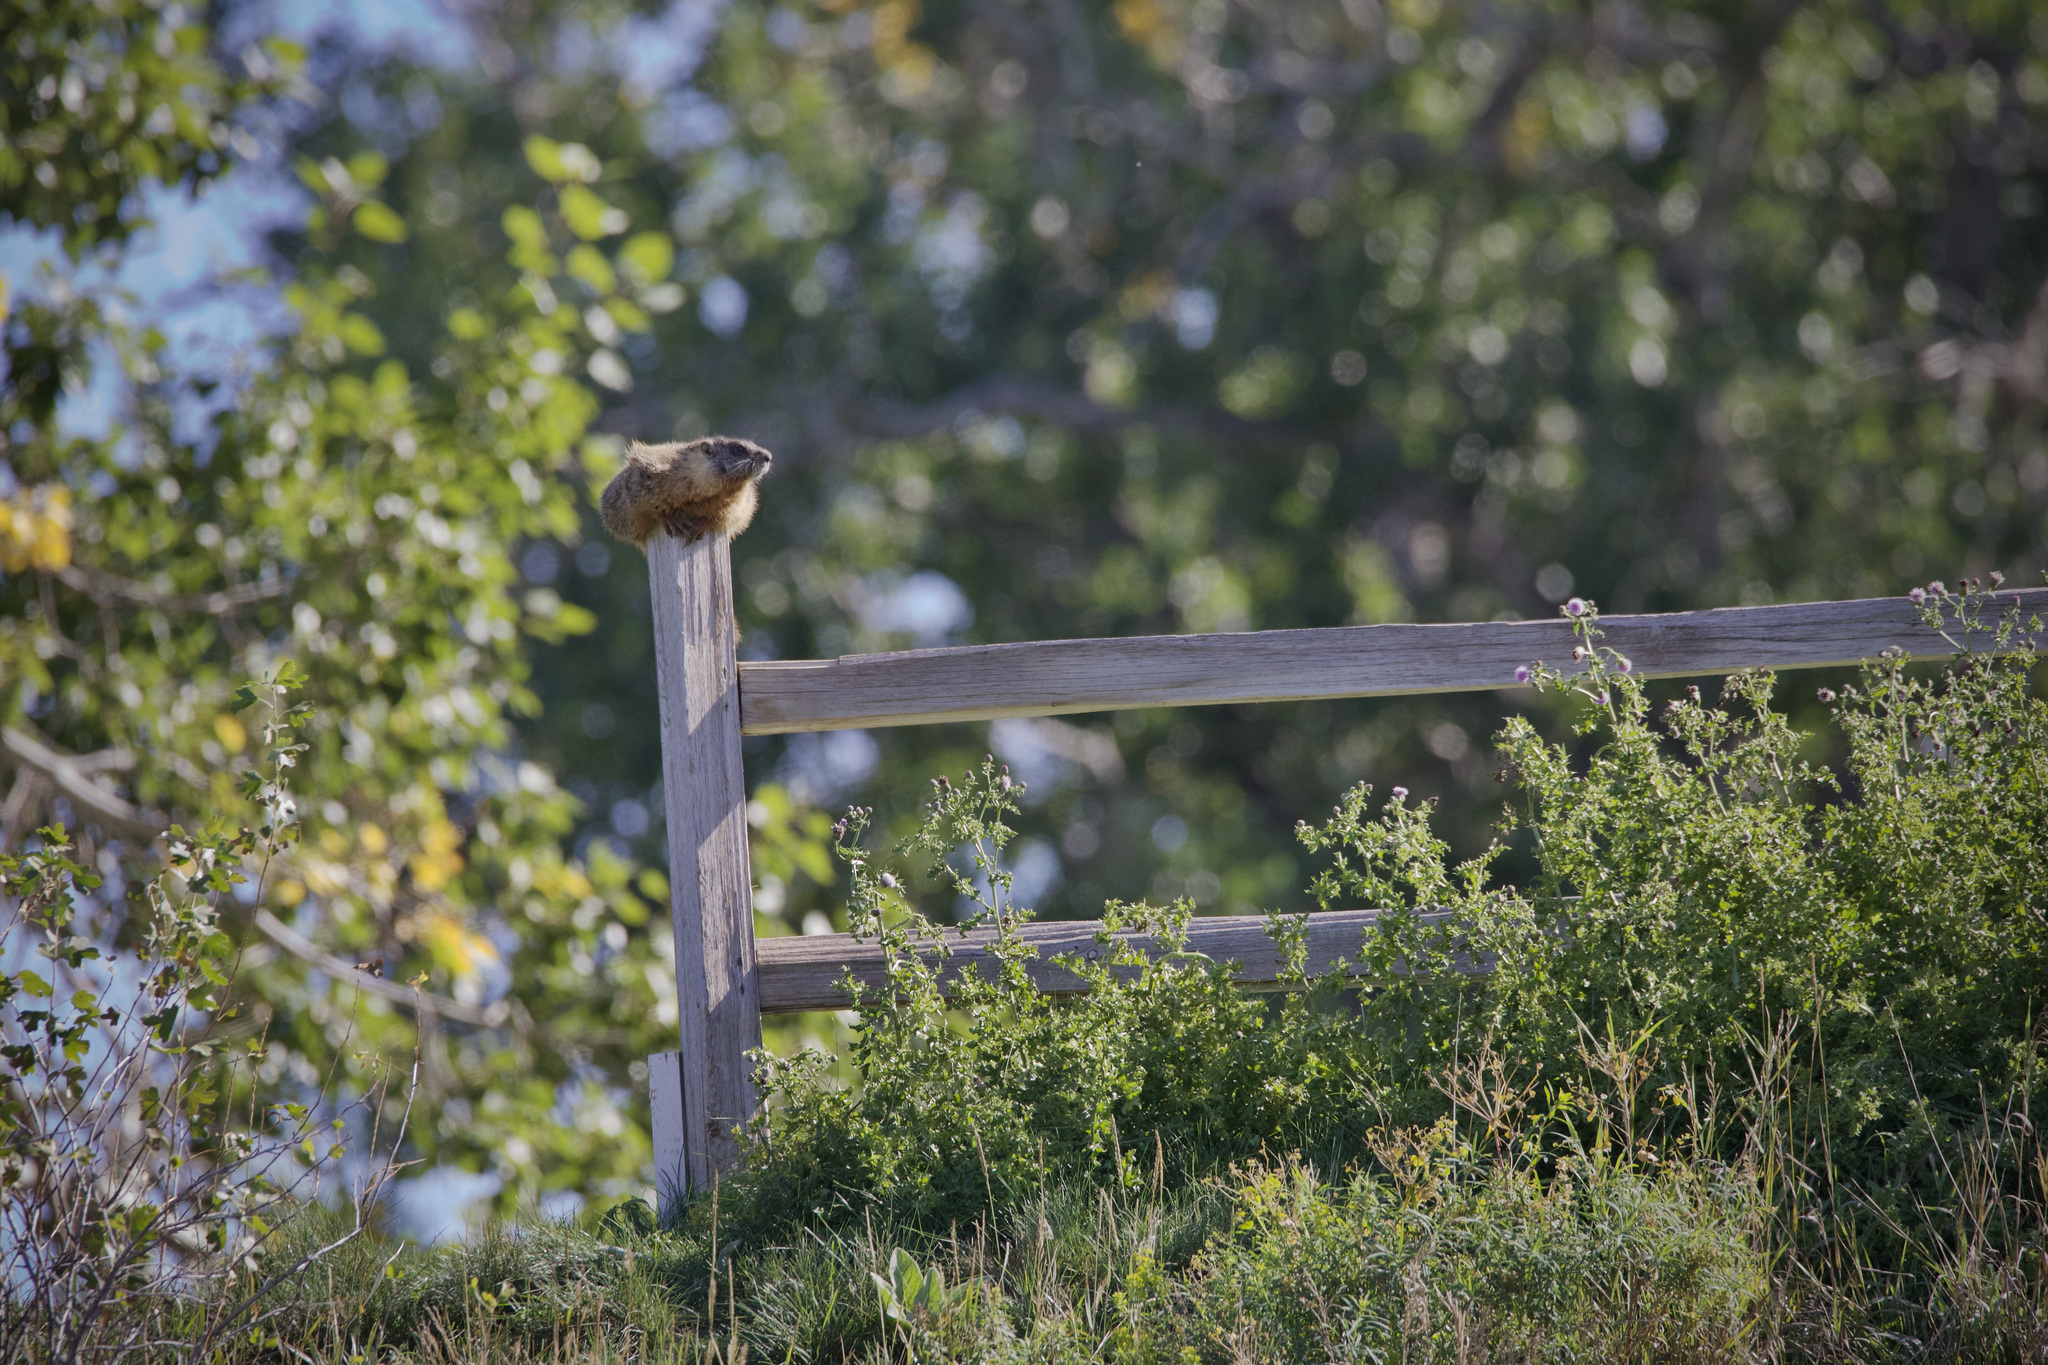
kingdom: Animalia
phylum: Chordata
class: Mammalia
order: Rodentia
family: Sciuridae
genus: Marmota
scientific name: Marmota flaviventris
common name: Yellow-bellied marmot
